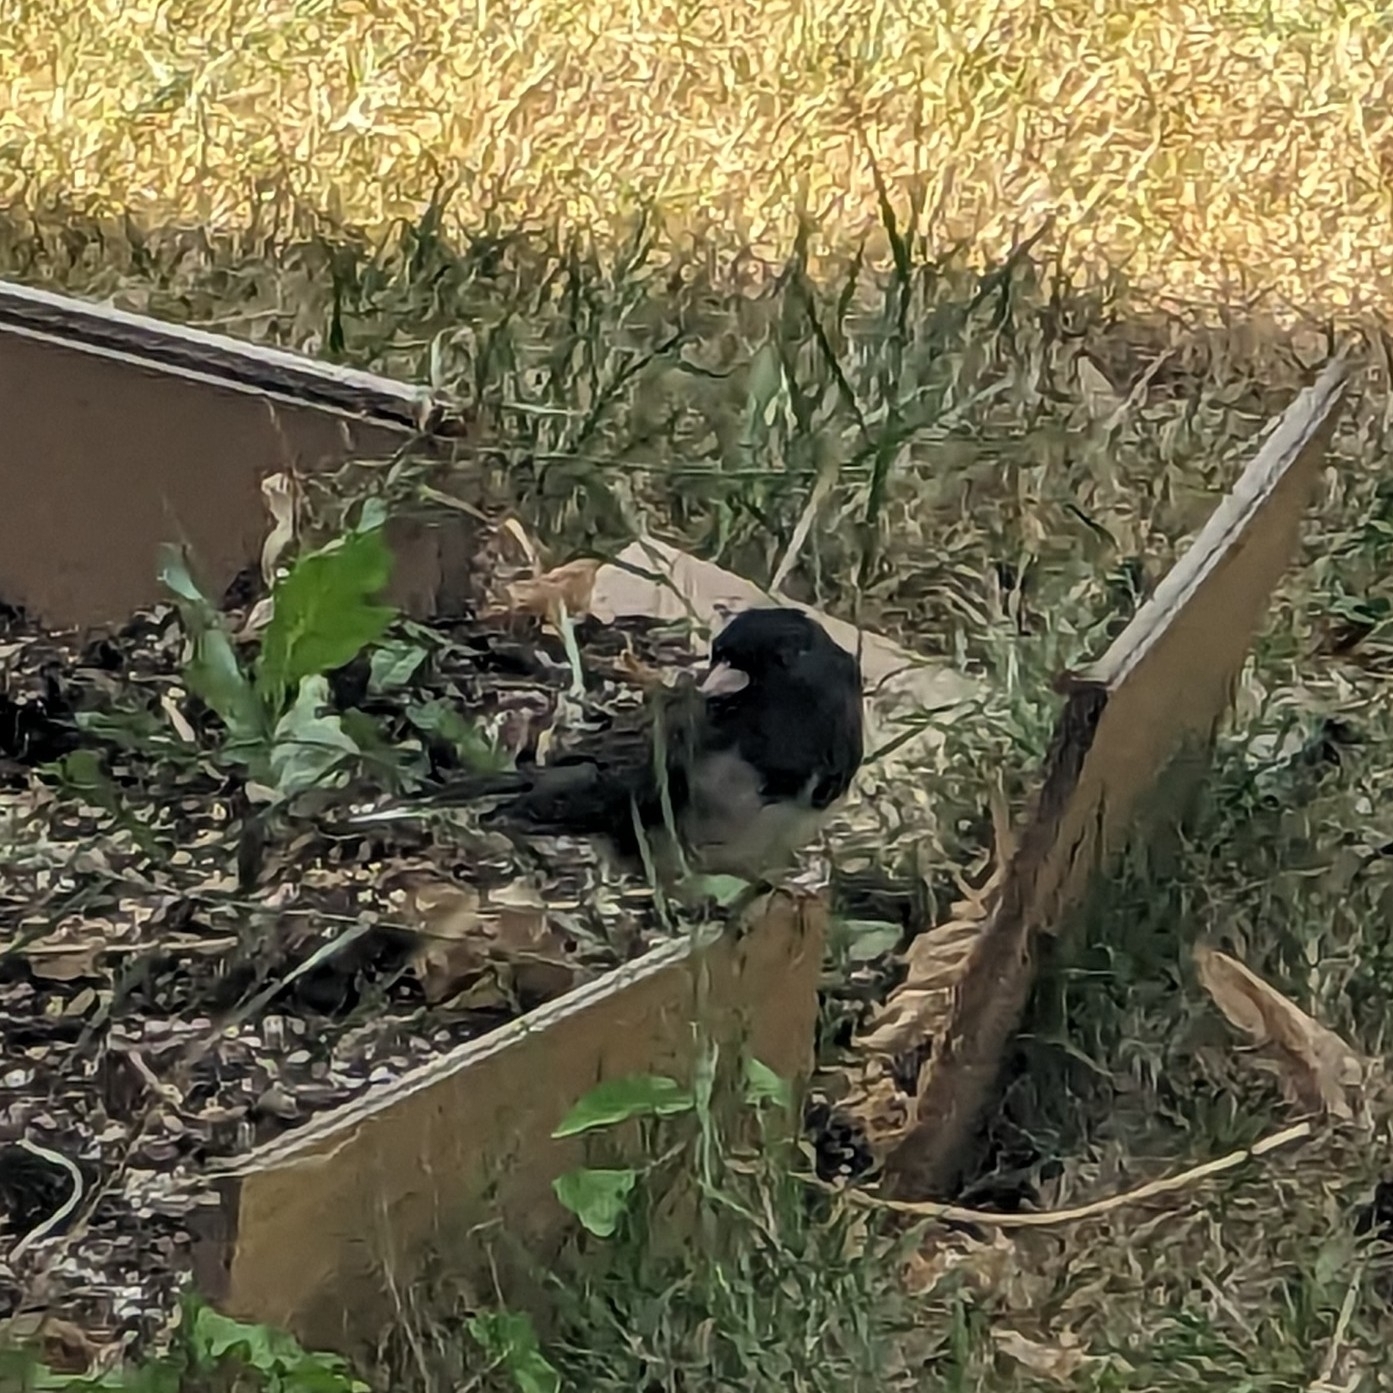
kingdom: Animalia
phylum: Chordata
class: Aves
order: Passeriformes
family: Passerellidae
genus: Junco
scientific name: Junco hyemalis
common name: Dark-eyed junco
